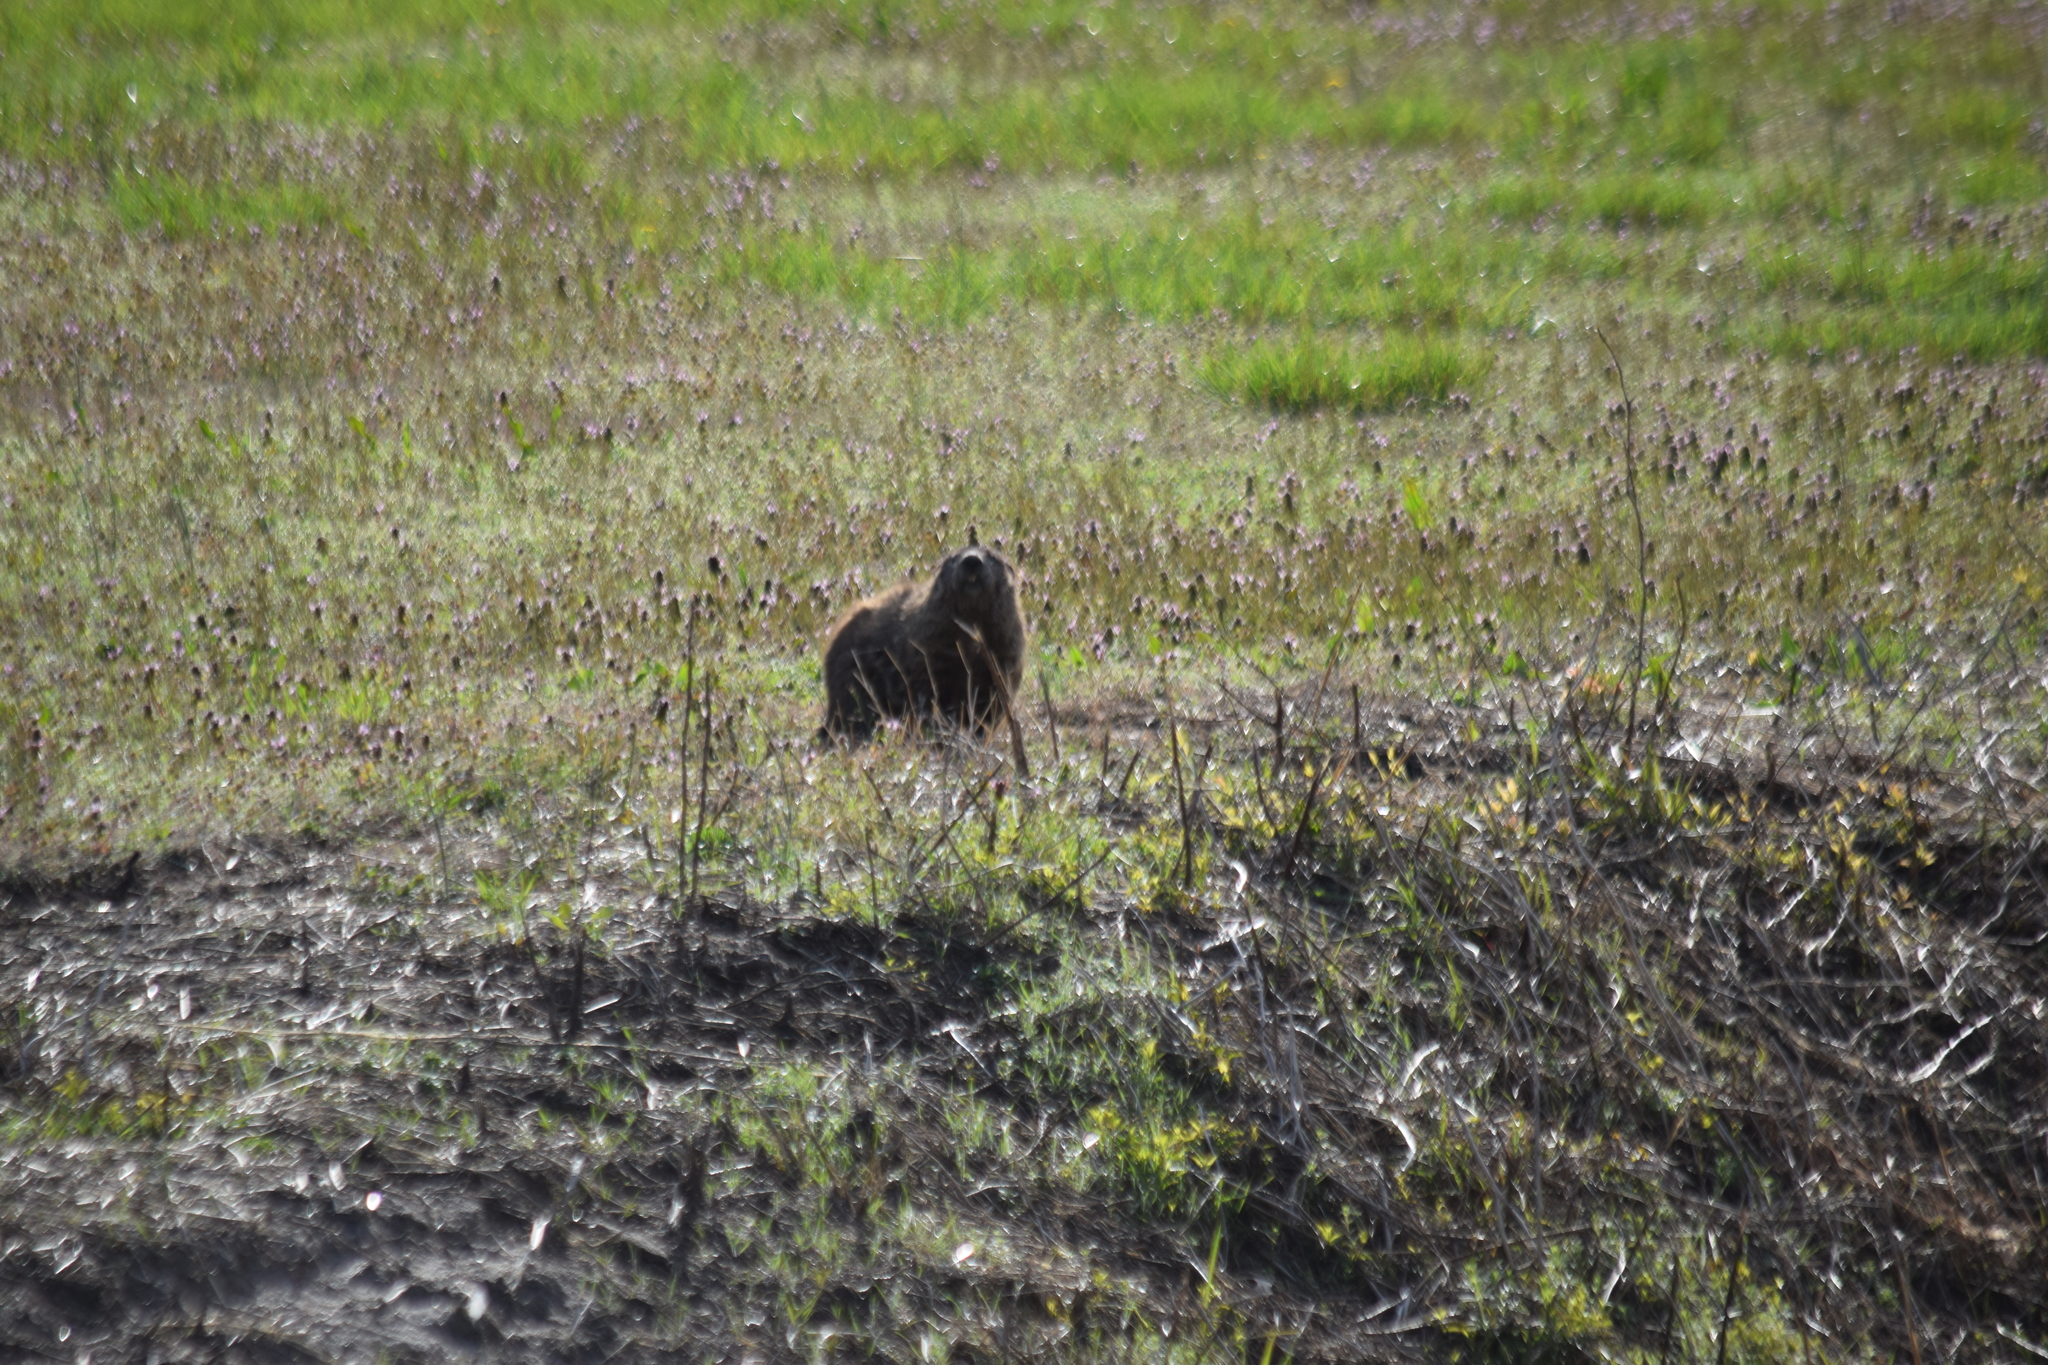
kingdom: Animalia
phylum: Chordata
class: Mammalia
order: Rodentia
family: Sciuridae
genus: Marmota
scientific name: Marmota monax
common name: Groundhog
